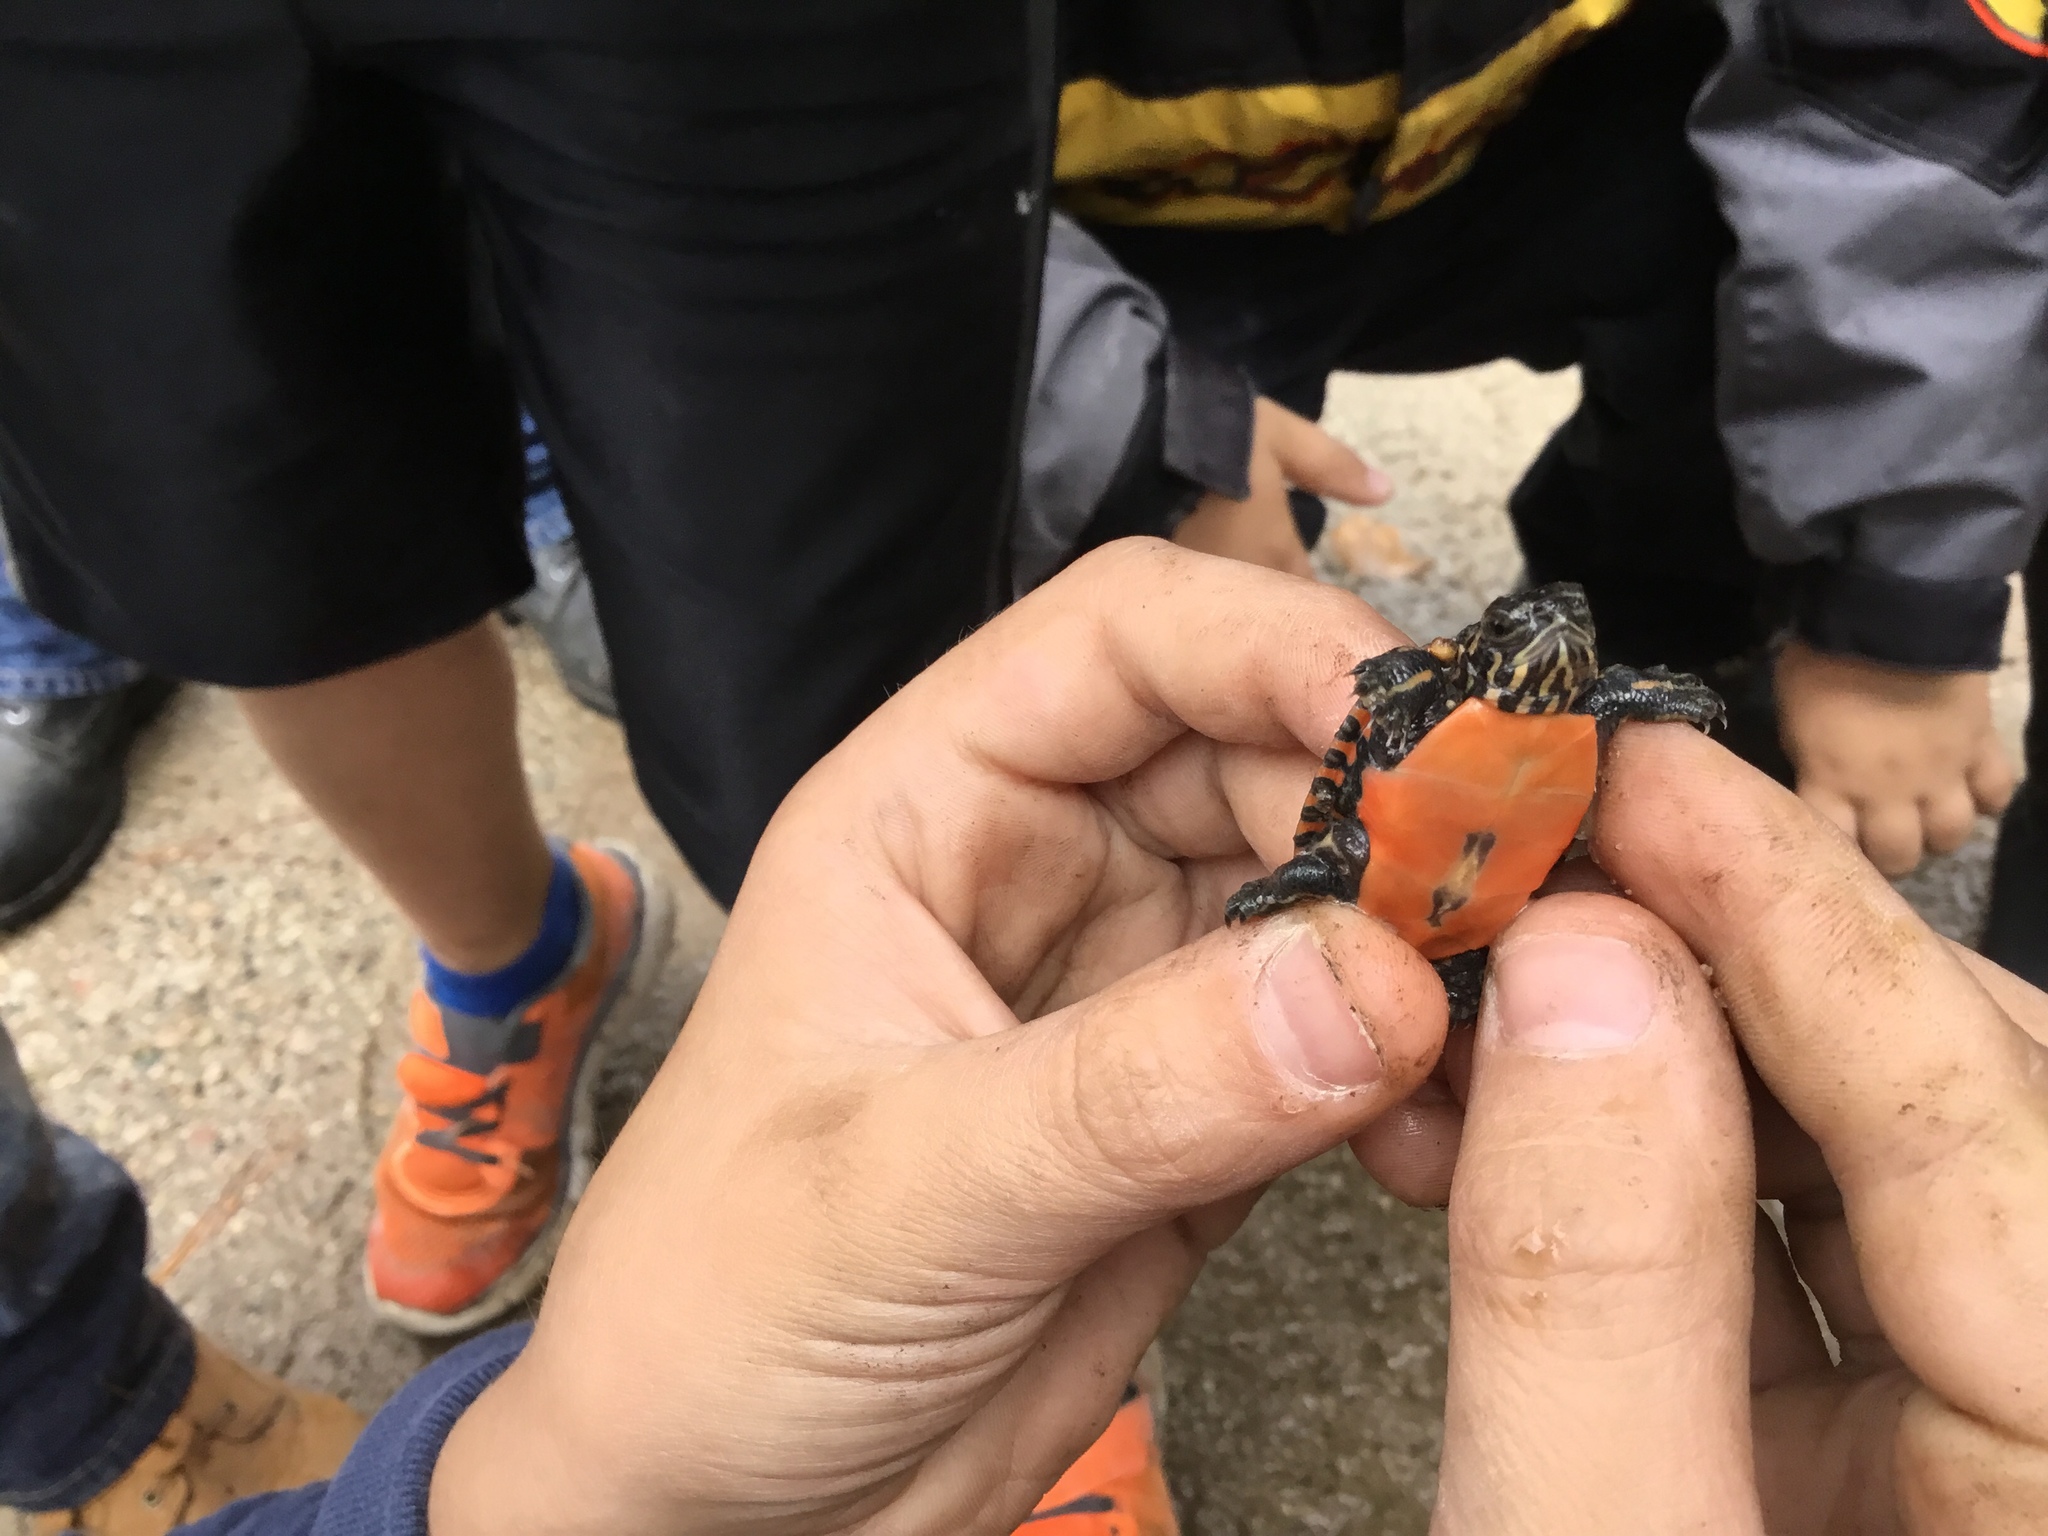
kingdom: Animalia
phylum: Chordata
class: Testudines
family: Emydidae
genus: Chrysemys
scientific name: Chrysemys picta
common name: Painted turtle
